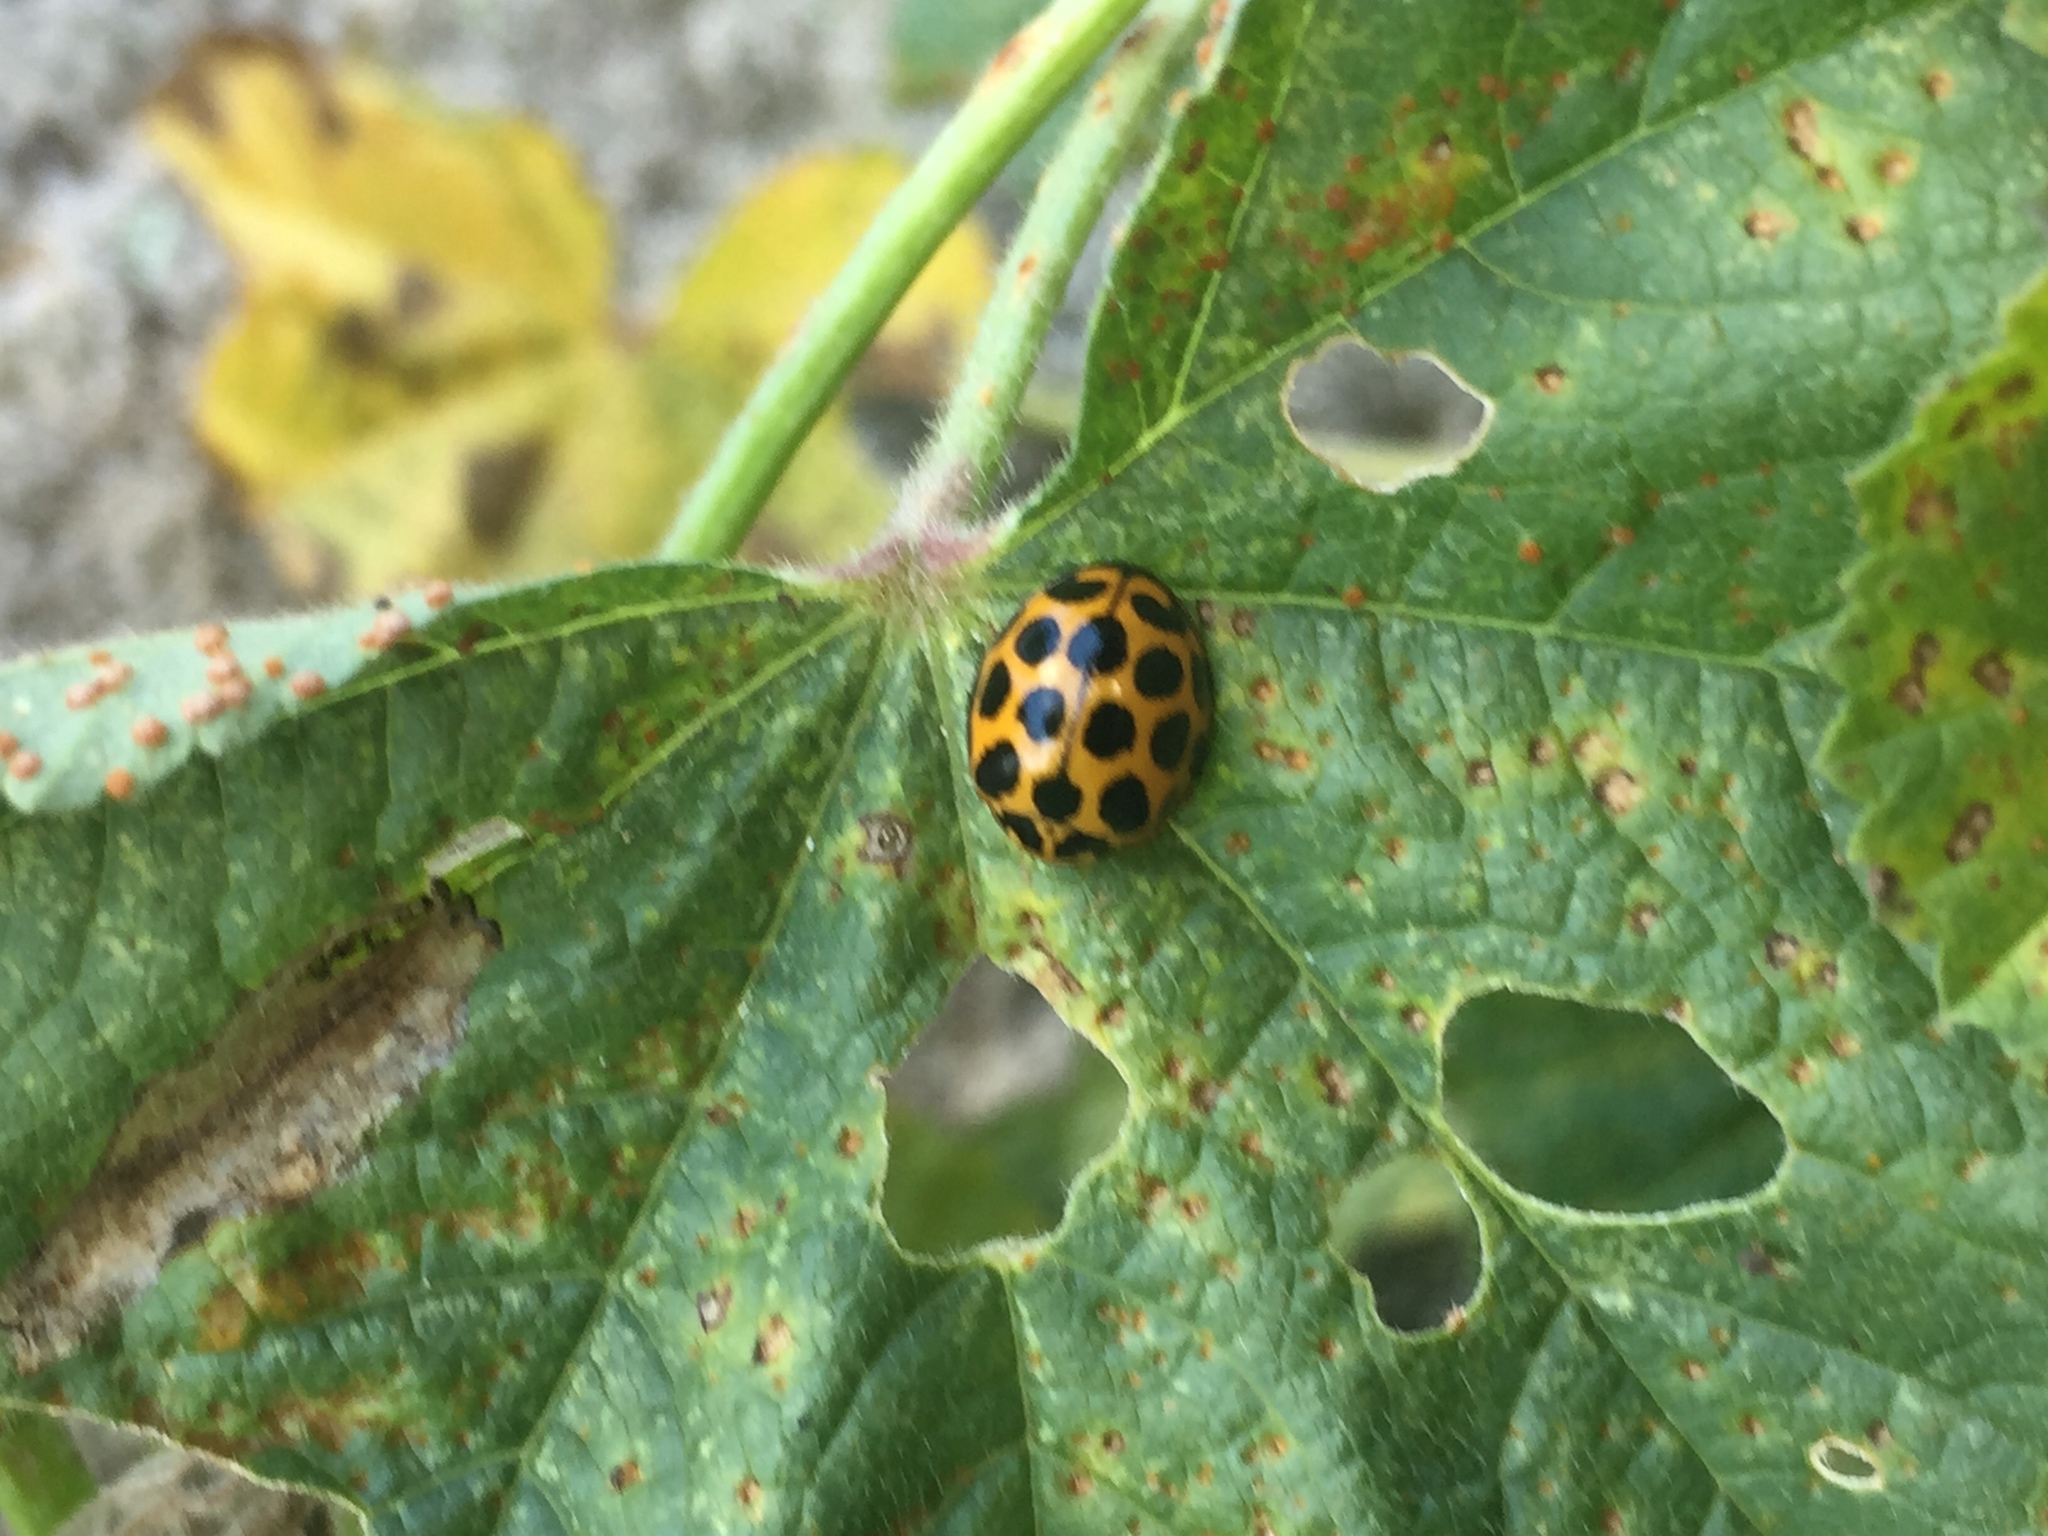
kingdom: Animalia
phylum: Arthropoda
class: Insecta
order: Coleoptera
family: Coccinellidae
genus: Harmonia
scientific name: Harmonia conformis
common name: Common spotted ladybird beetle
